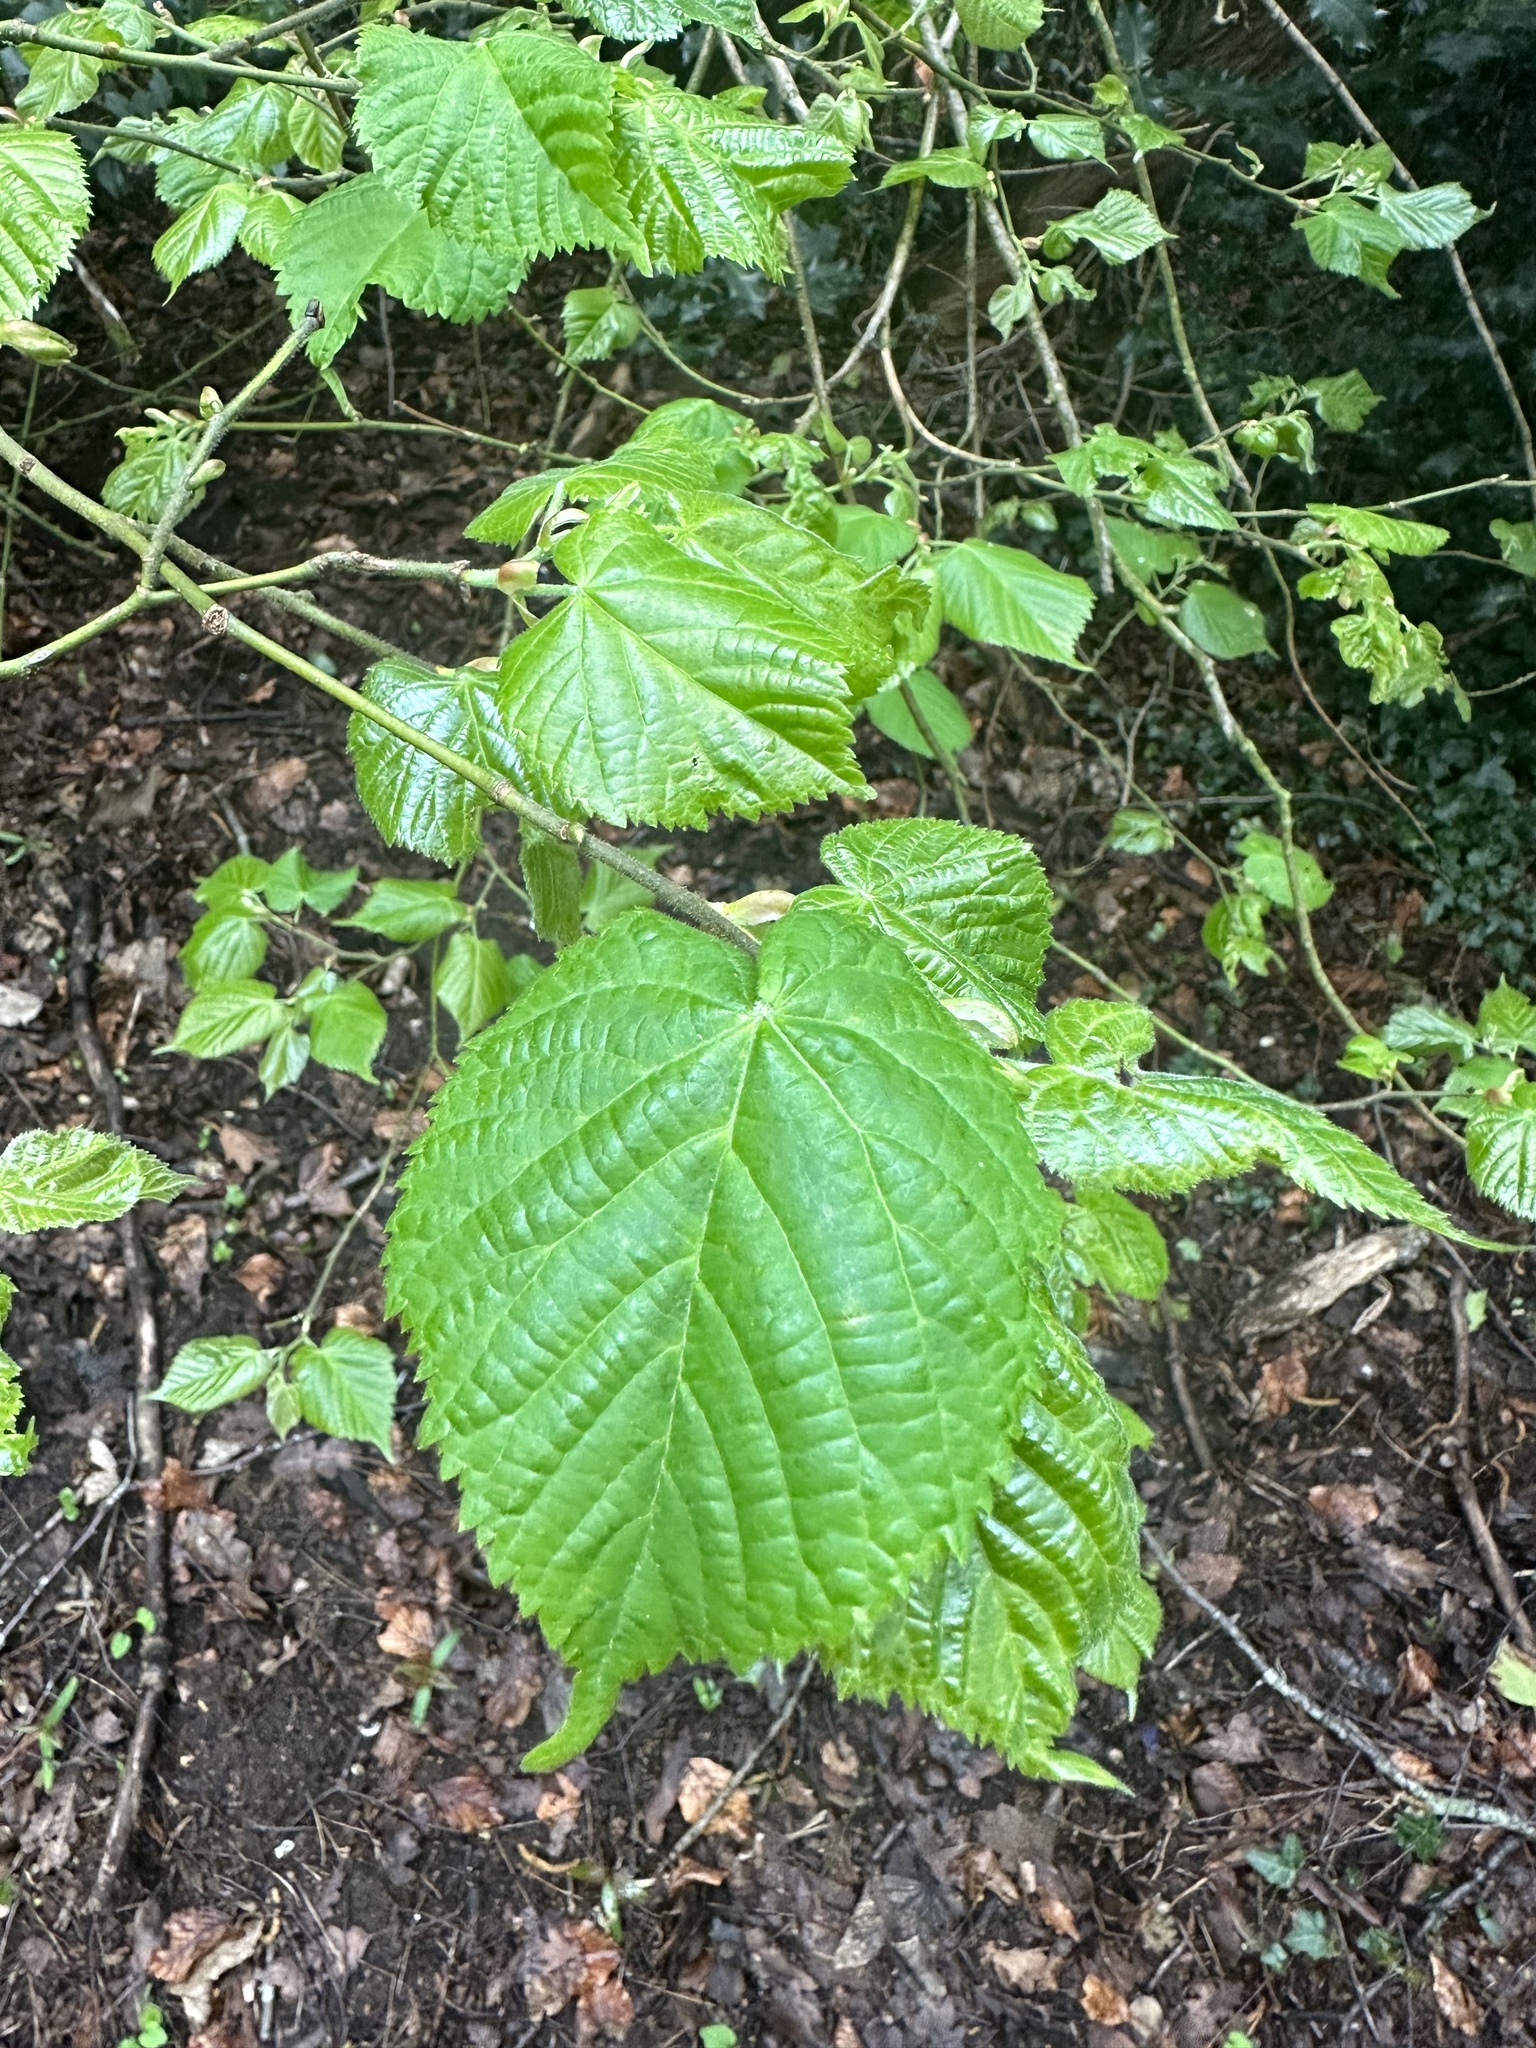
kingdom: Plantae
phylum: Tracheophyta
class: Magnoliopsida
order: Malvales
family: Malvaceae
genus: Tilia
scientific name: Tilia europaea
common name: European linden
